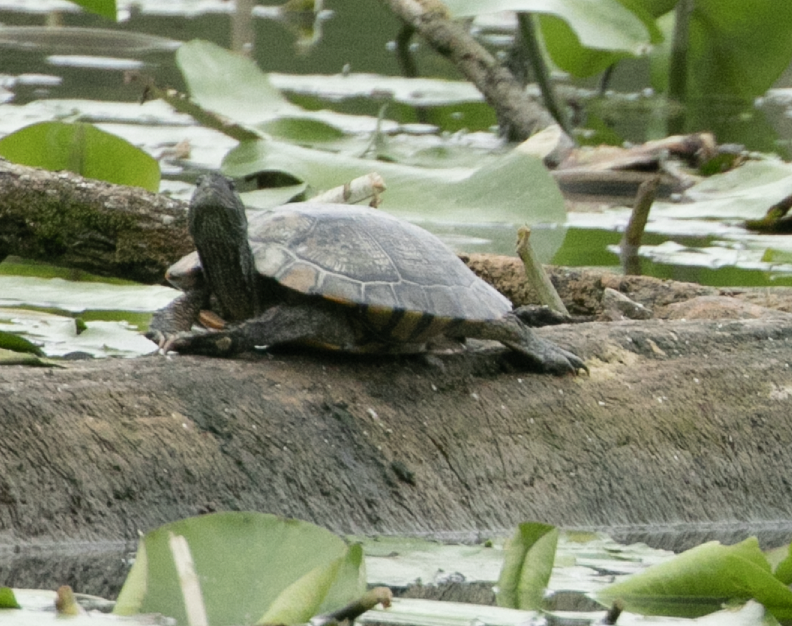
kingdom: Animalia
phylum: Chordata
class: Testudines
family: Emydidae
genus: Trachemys
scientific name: Trachemys scripta
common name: Slider
